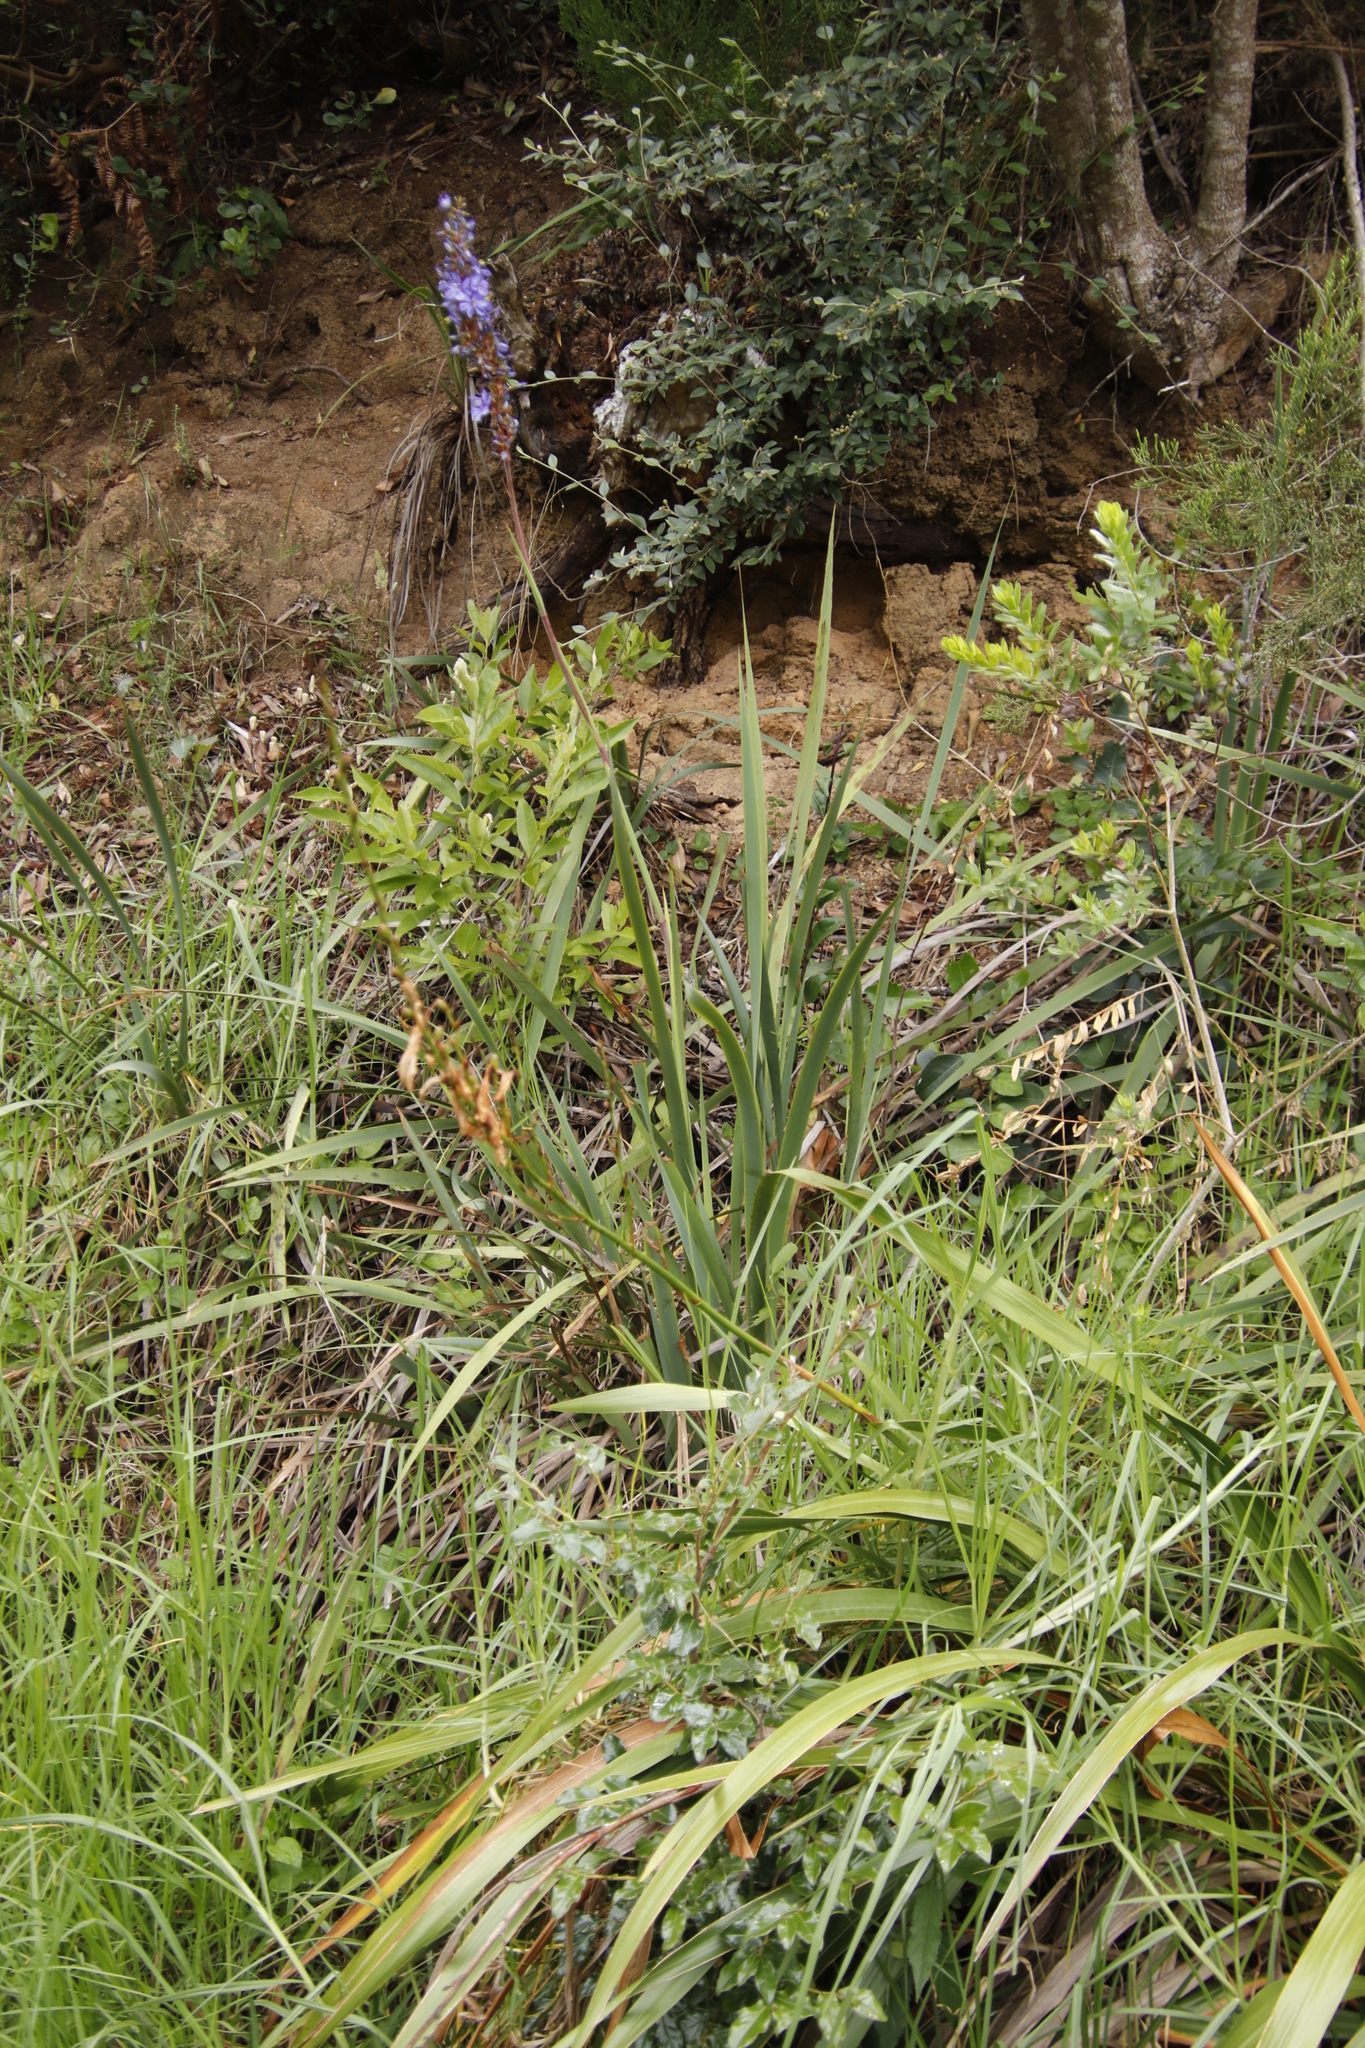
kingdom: Plantae
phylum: Tracheophyta
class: Liliopsida
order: Asparagales
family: Iridaceae
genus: Aristea
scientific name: Aristea capitata
